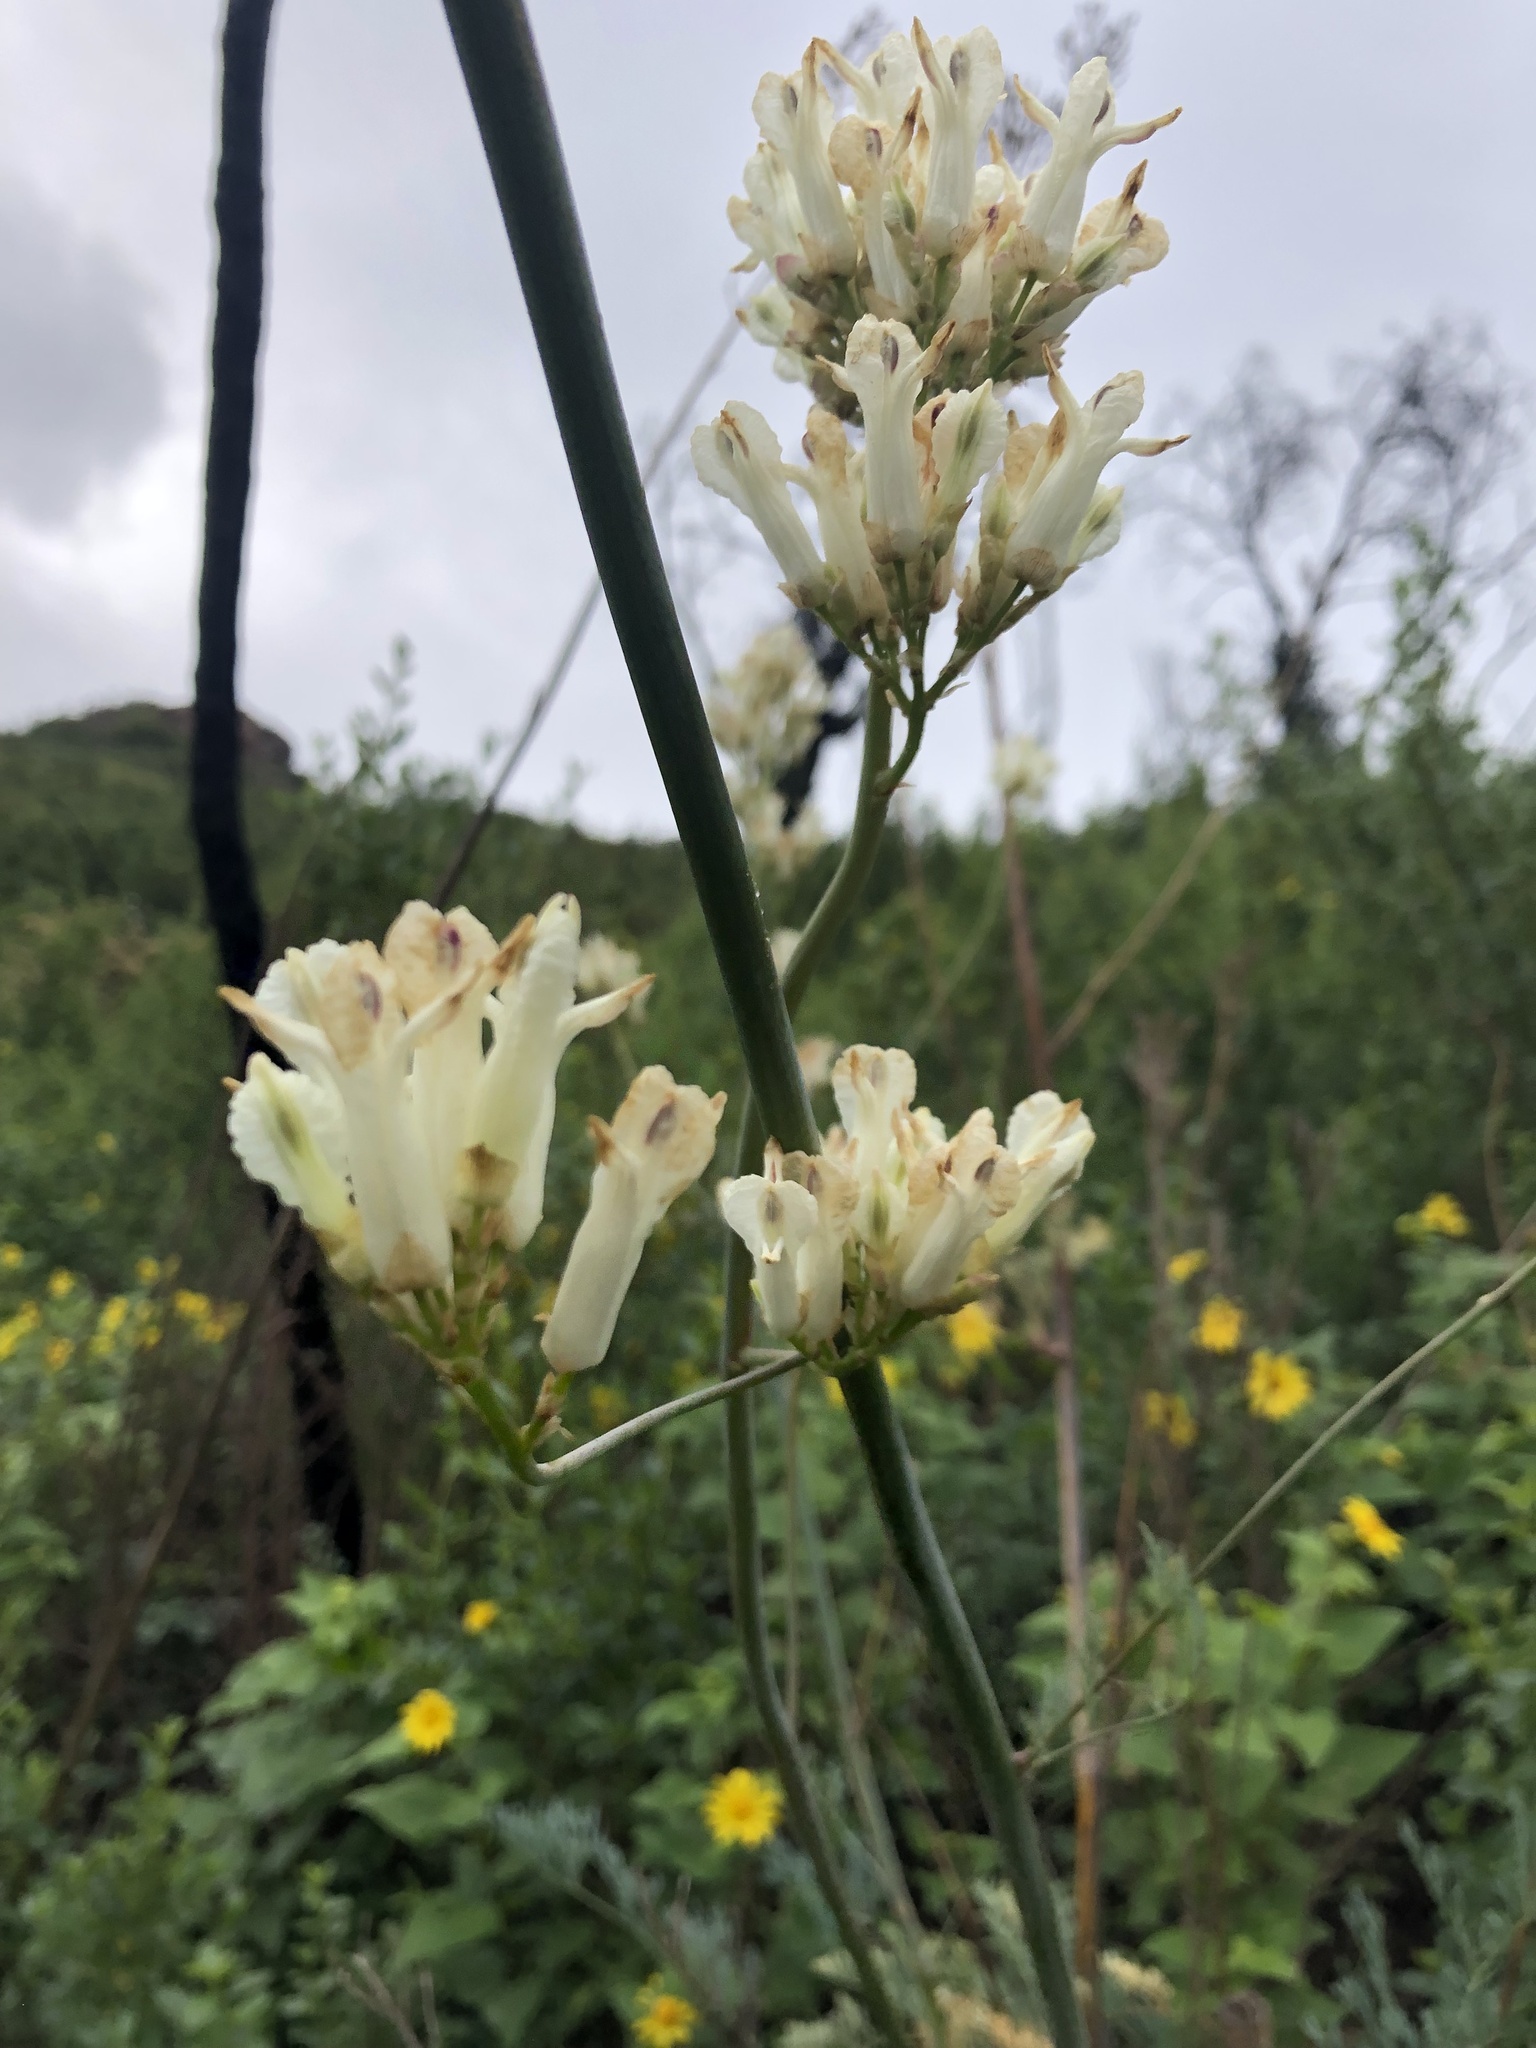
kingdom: Plantae
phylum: Tracheophyta
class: Magnoliopsida
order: Ranunculales
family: Papaveraceae
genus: Ehrendorferia
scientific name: Ehrendorferia ochroleuca
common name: White eardrops
